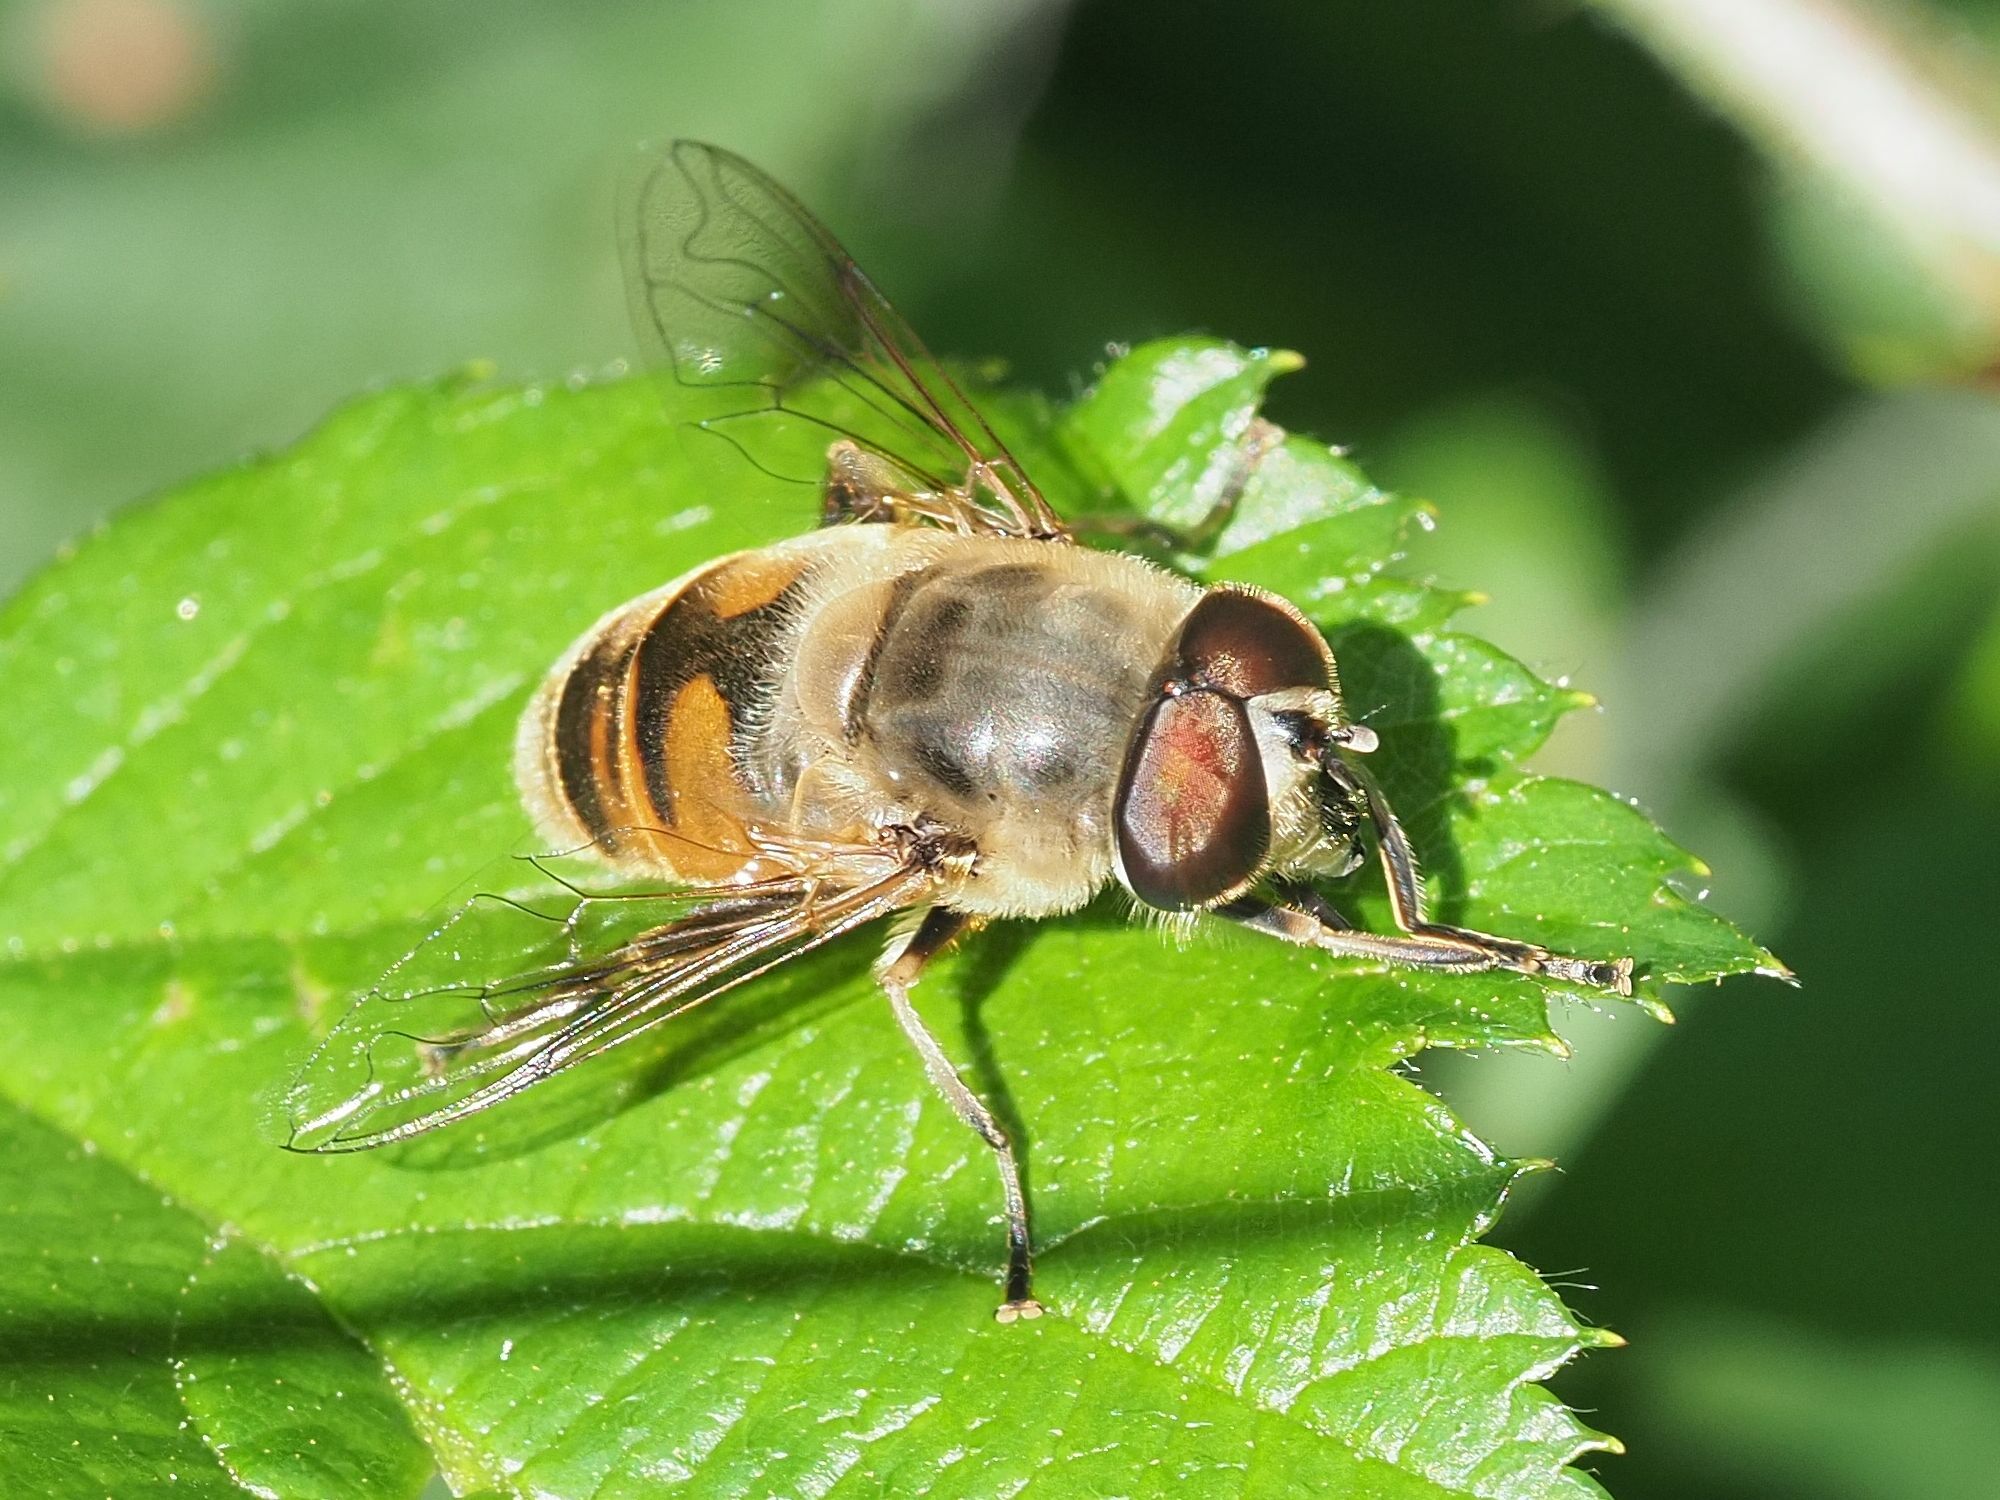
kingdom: Animalia
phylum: Arthropoda
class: Insecta
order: Diptera
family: Syrphidae
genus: Eristalis
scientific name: Eristalis tenax
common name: Drone fly
